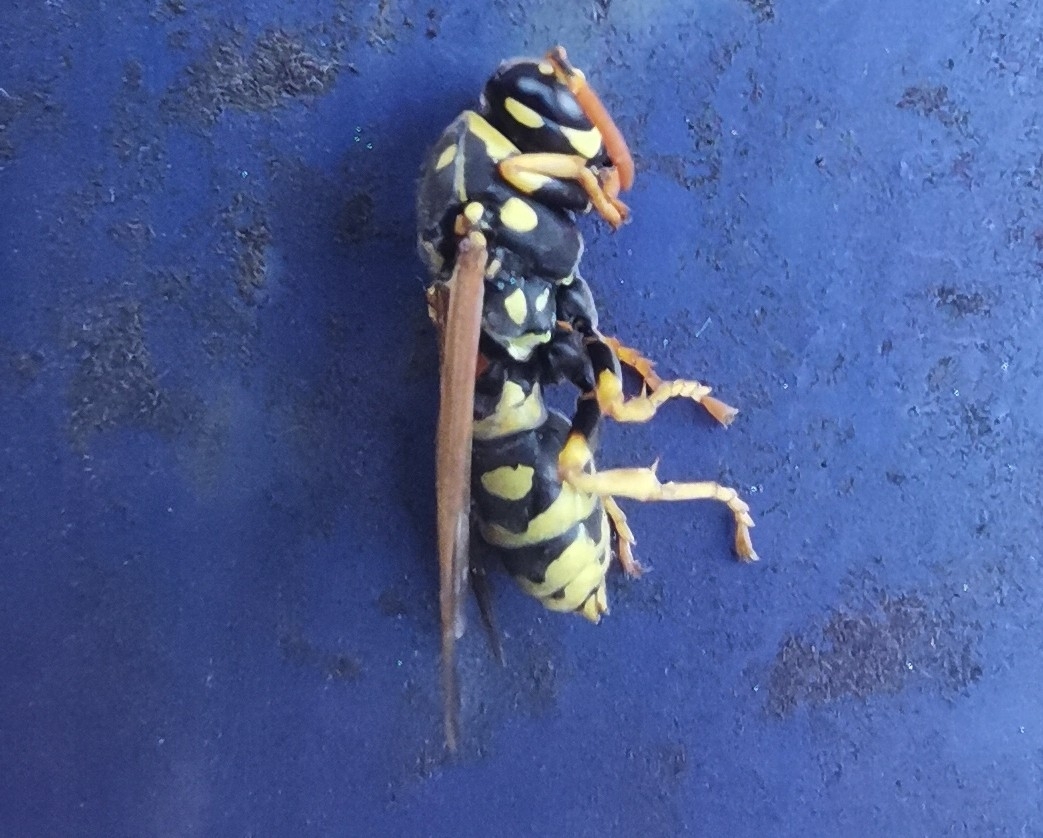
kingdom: Animalia
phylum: Arthropoda
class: Insecta
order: Hymenoptera
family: Eumenidae
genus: Polistes
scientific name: Polistes dominula
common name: Paper wasp
